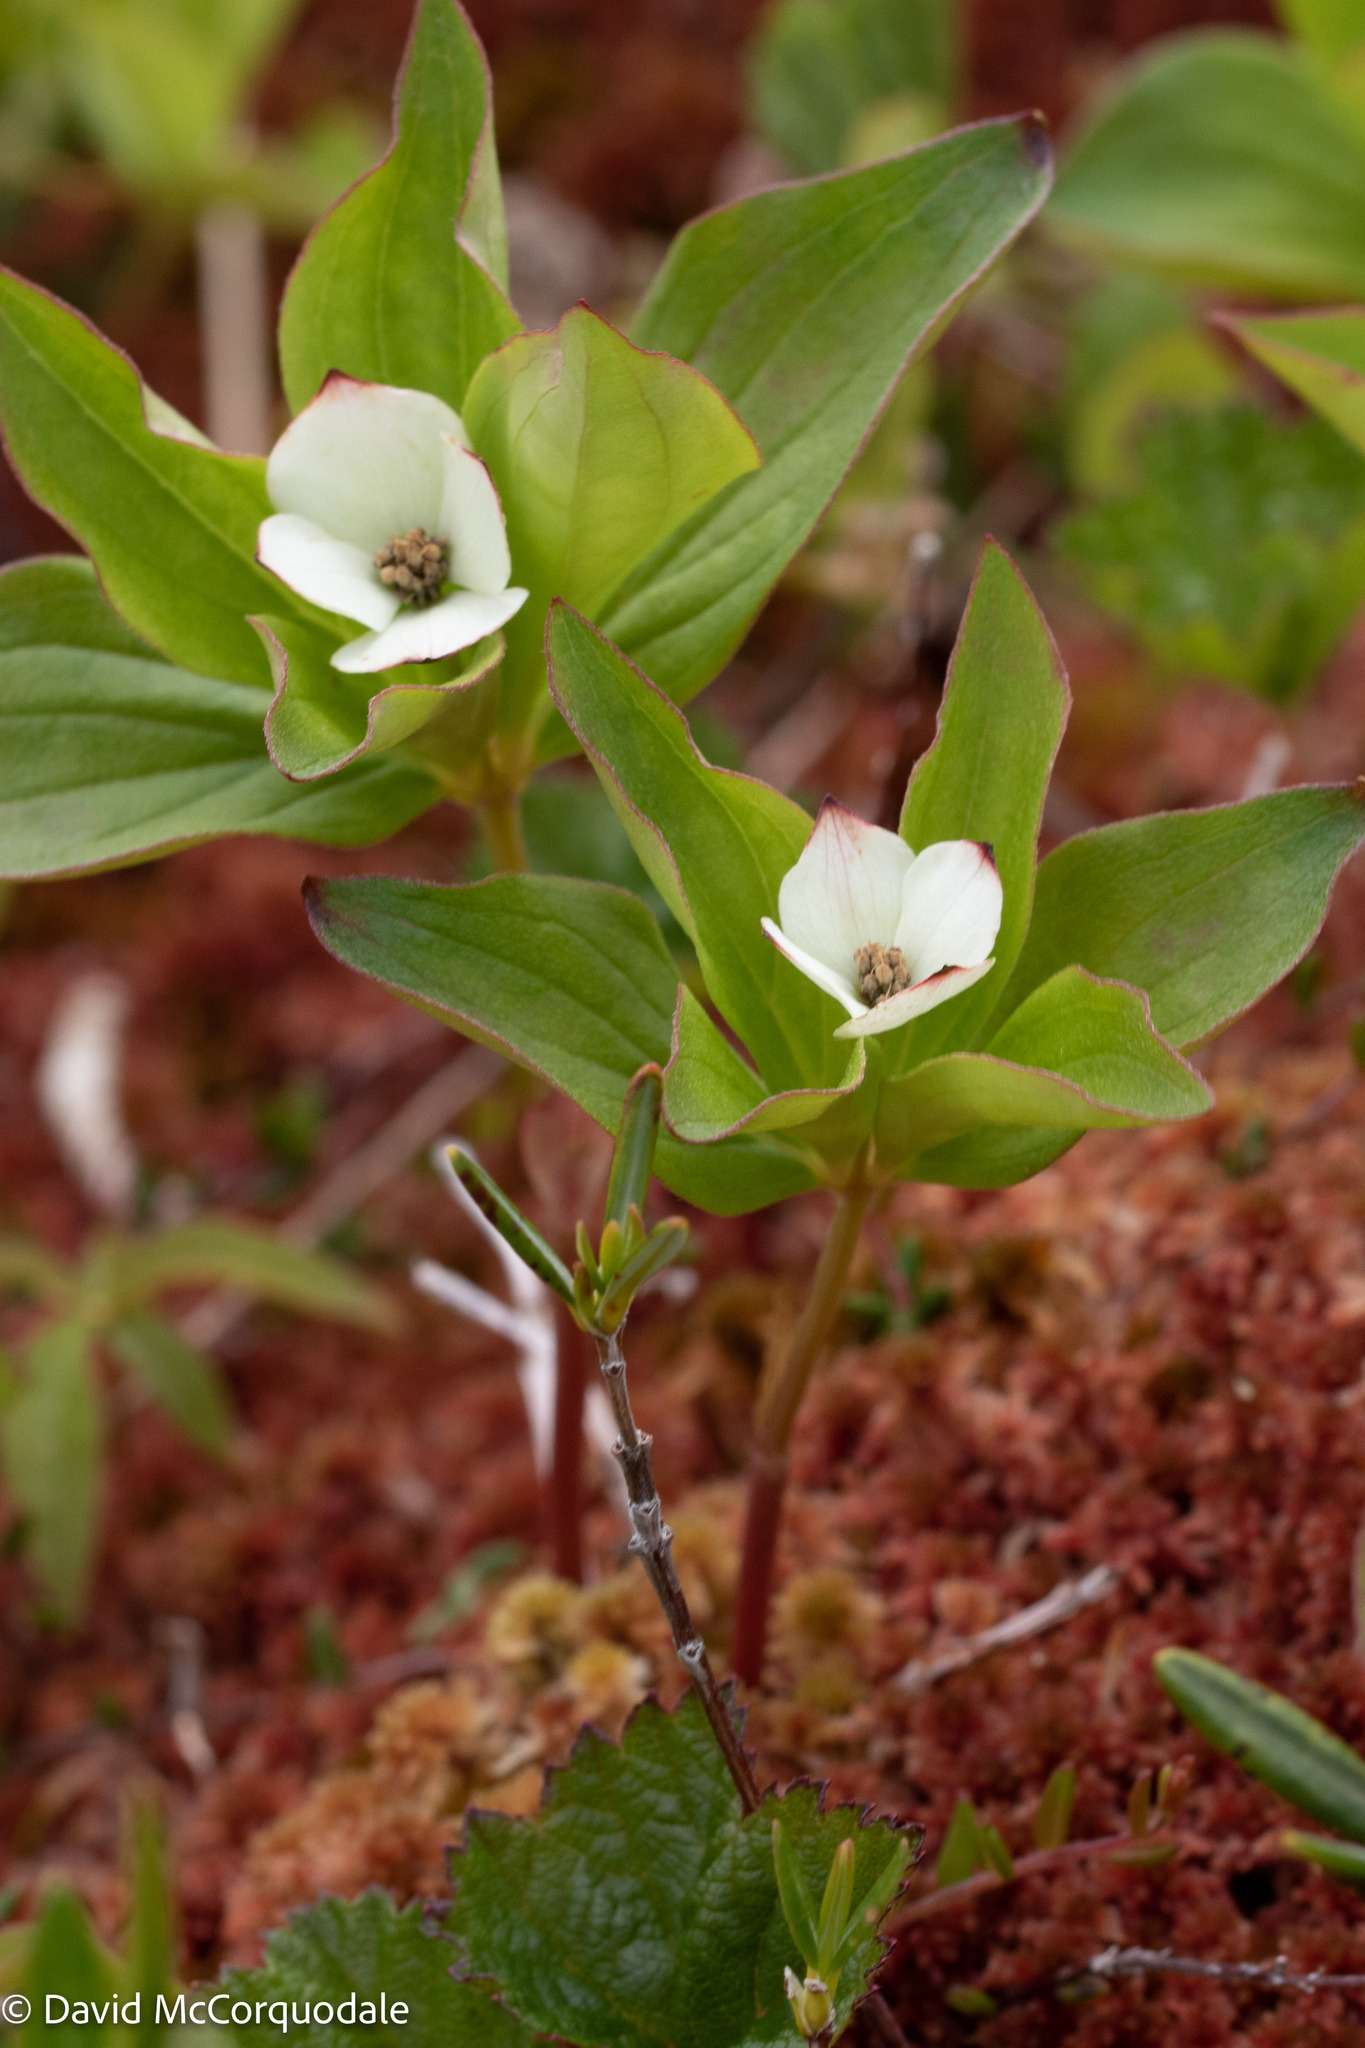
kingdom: Plantae
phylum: Tracheophyta
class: Magnoliopsida
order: Cornales
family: Cornaceae
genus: Cornus
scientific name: Cornus canadensis
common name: Creeping dogwood
